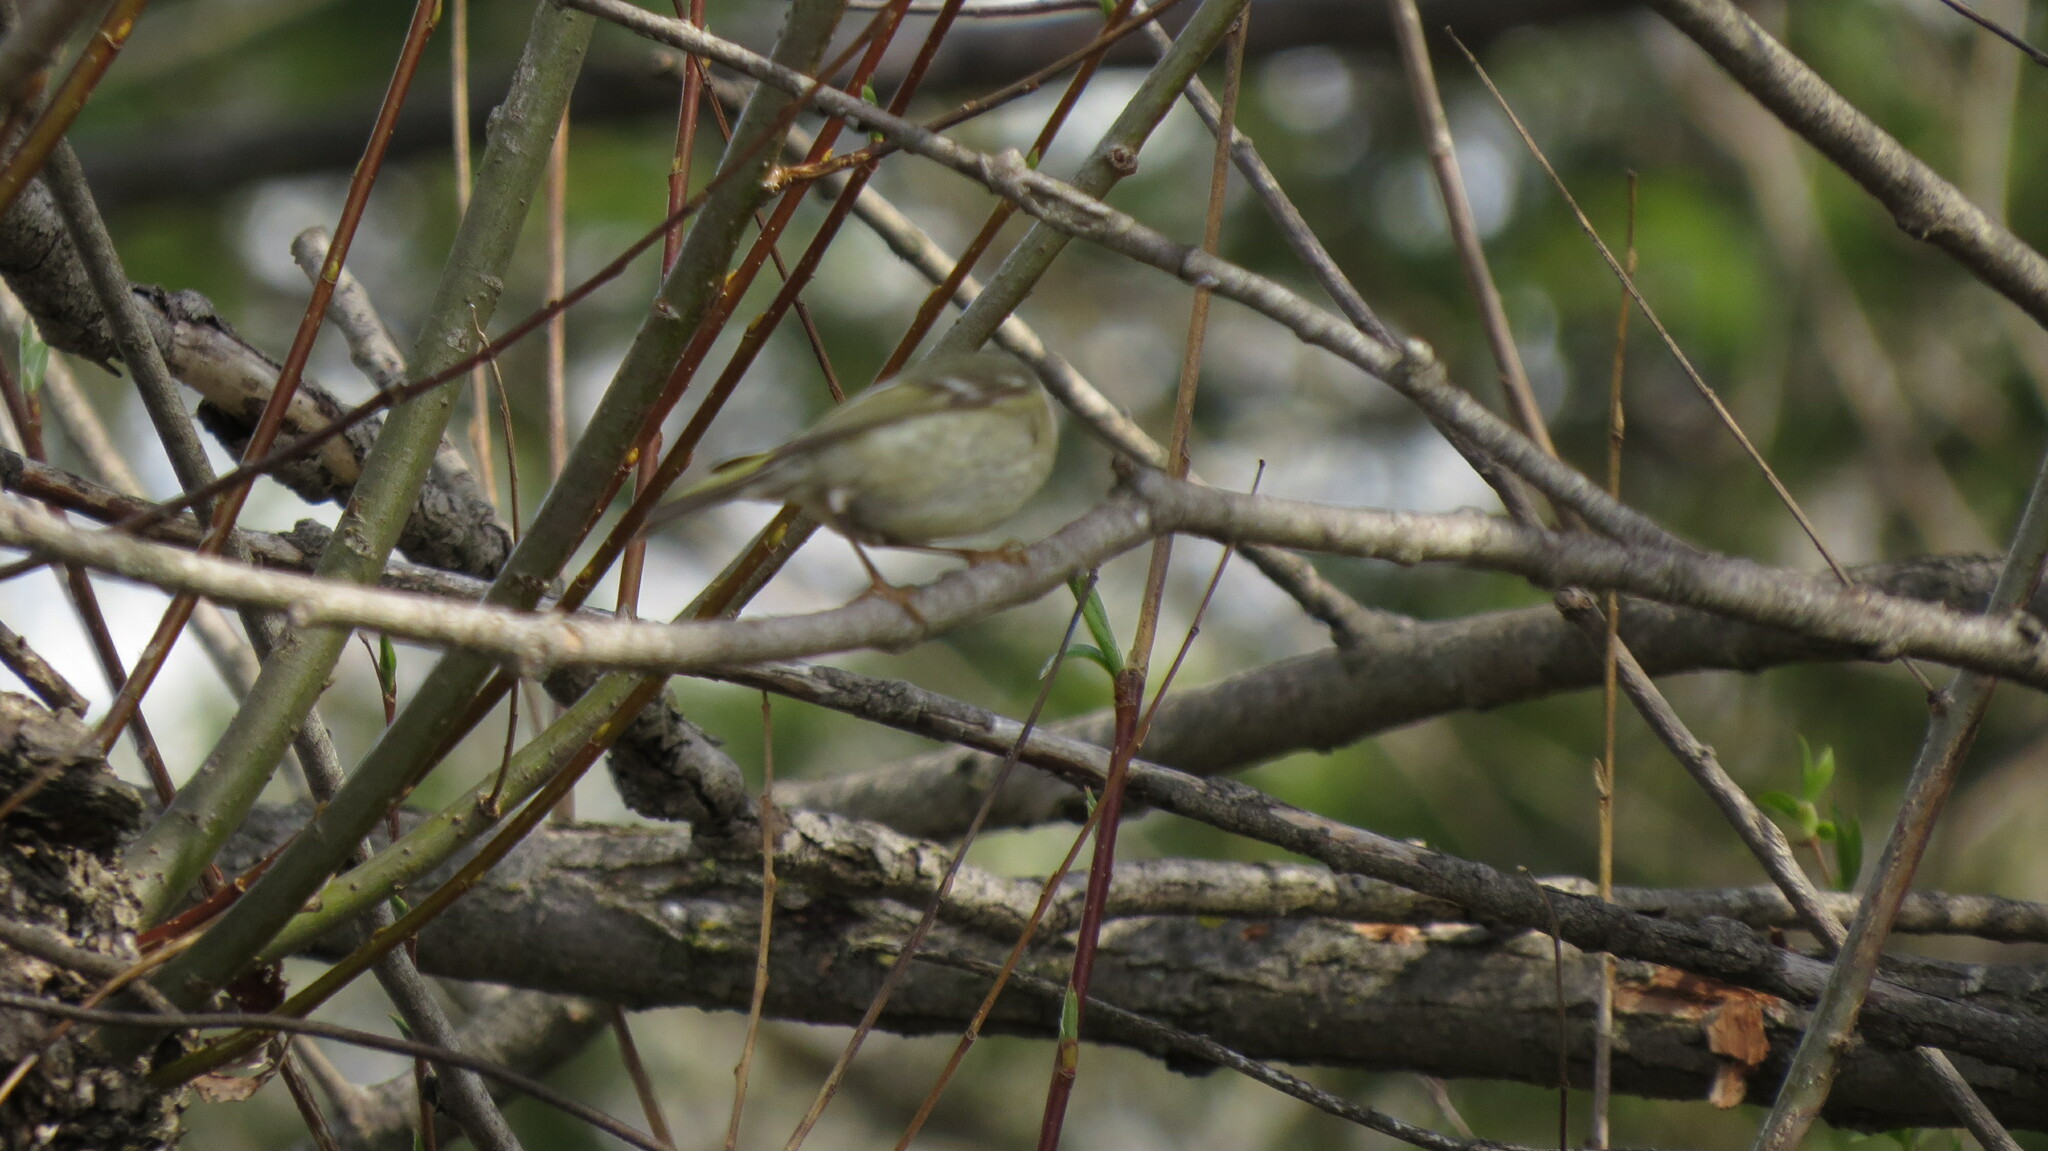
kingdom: Animalia
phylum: Chordata
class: Aves
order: Passeriformes
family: Regulidae
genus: Regulus
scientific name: Regulus calendula
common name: Ruby-crowned kinglet
